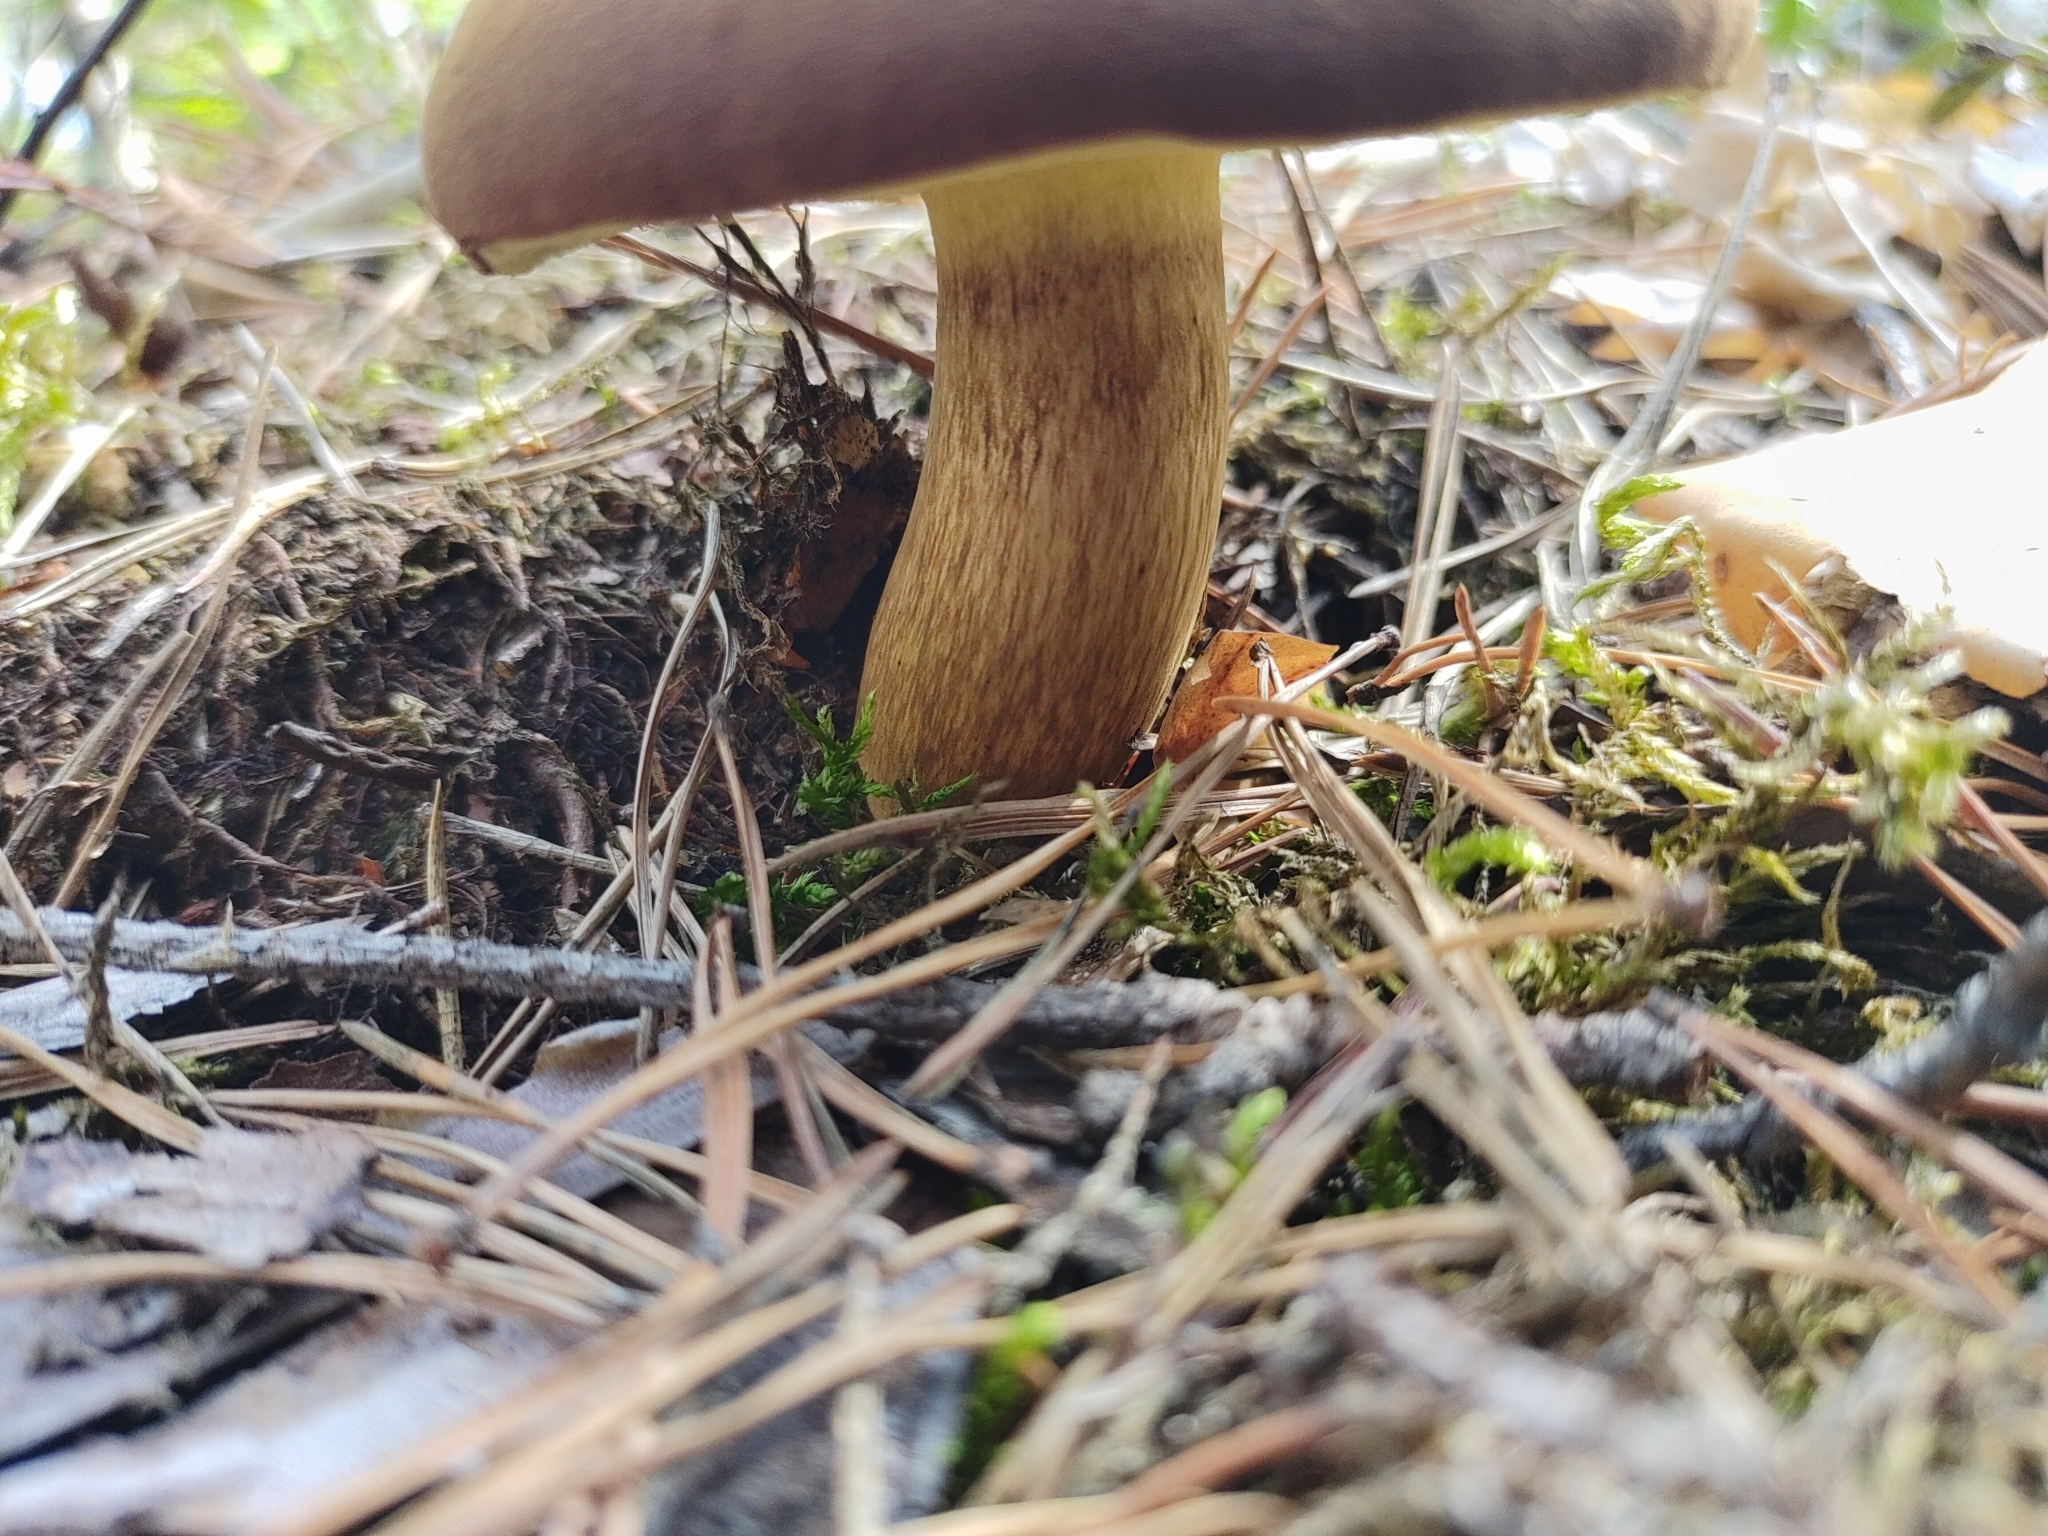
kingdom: Fungi
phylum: Basidiomycota
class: Agaricomycetes
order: Boletales
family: Boletaceae
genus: Imleria
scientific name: Imleria badia
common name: Bay bolete
